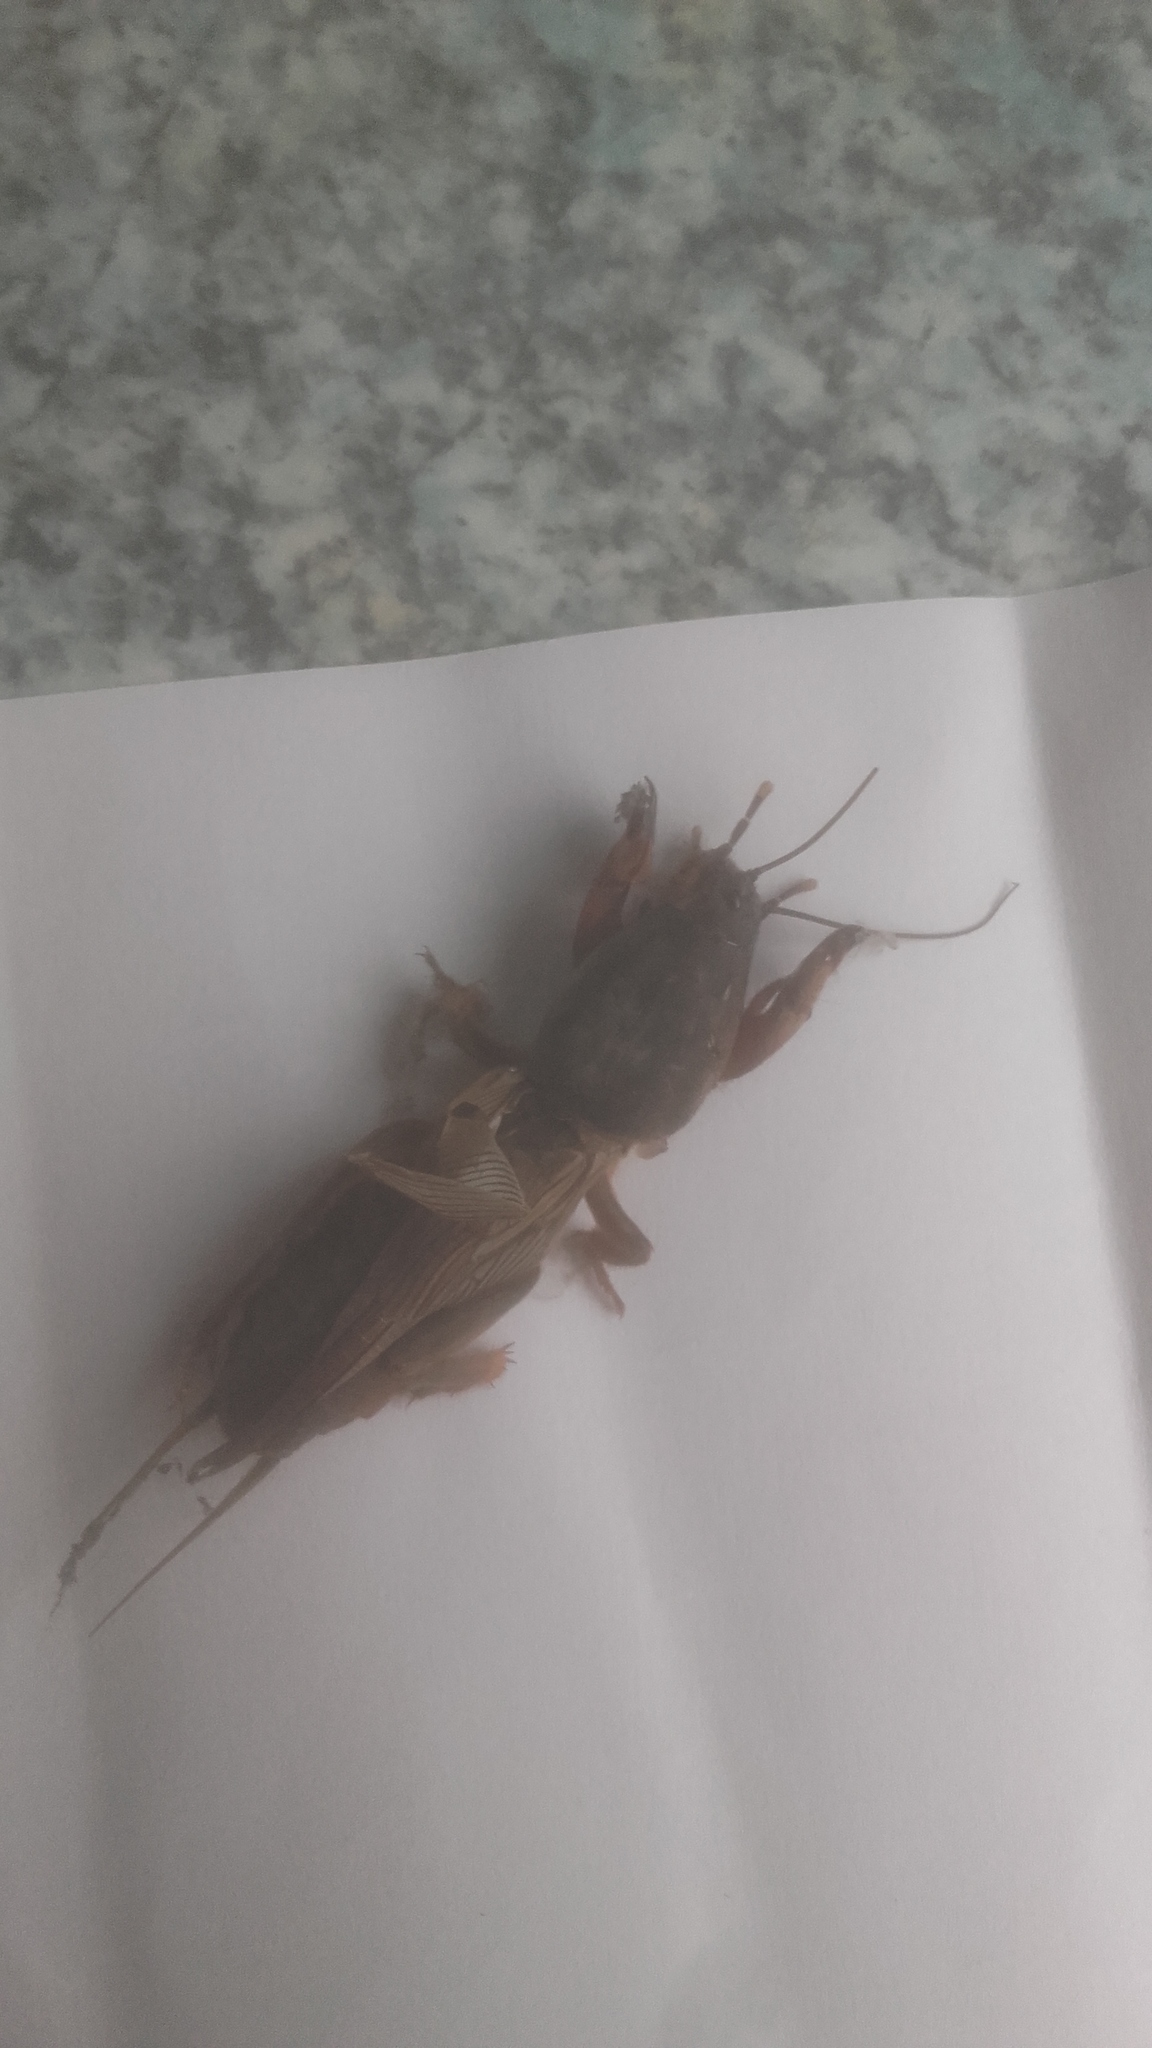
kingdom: Animalia
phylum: Arthropoda
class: Insecta
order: Orthoptera
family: Gryllotalpidae
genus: Gryllotalpa
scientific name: Gryllotalpa gryllotalpa
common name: European mole cricket
